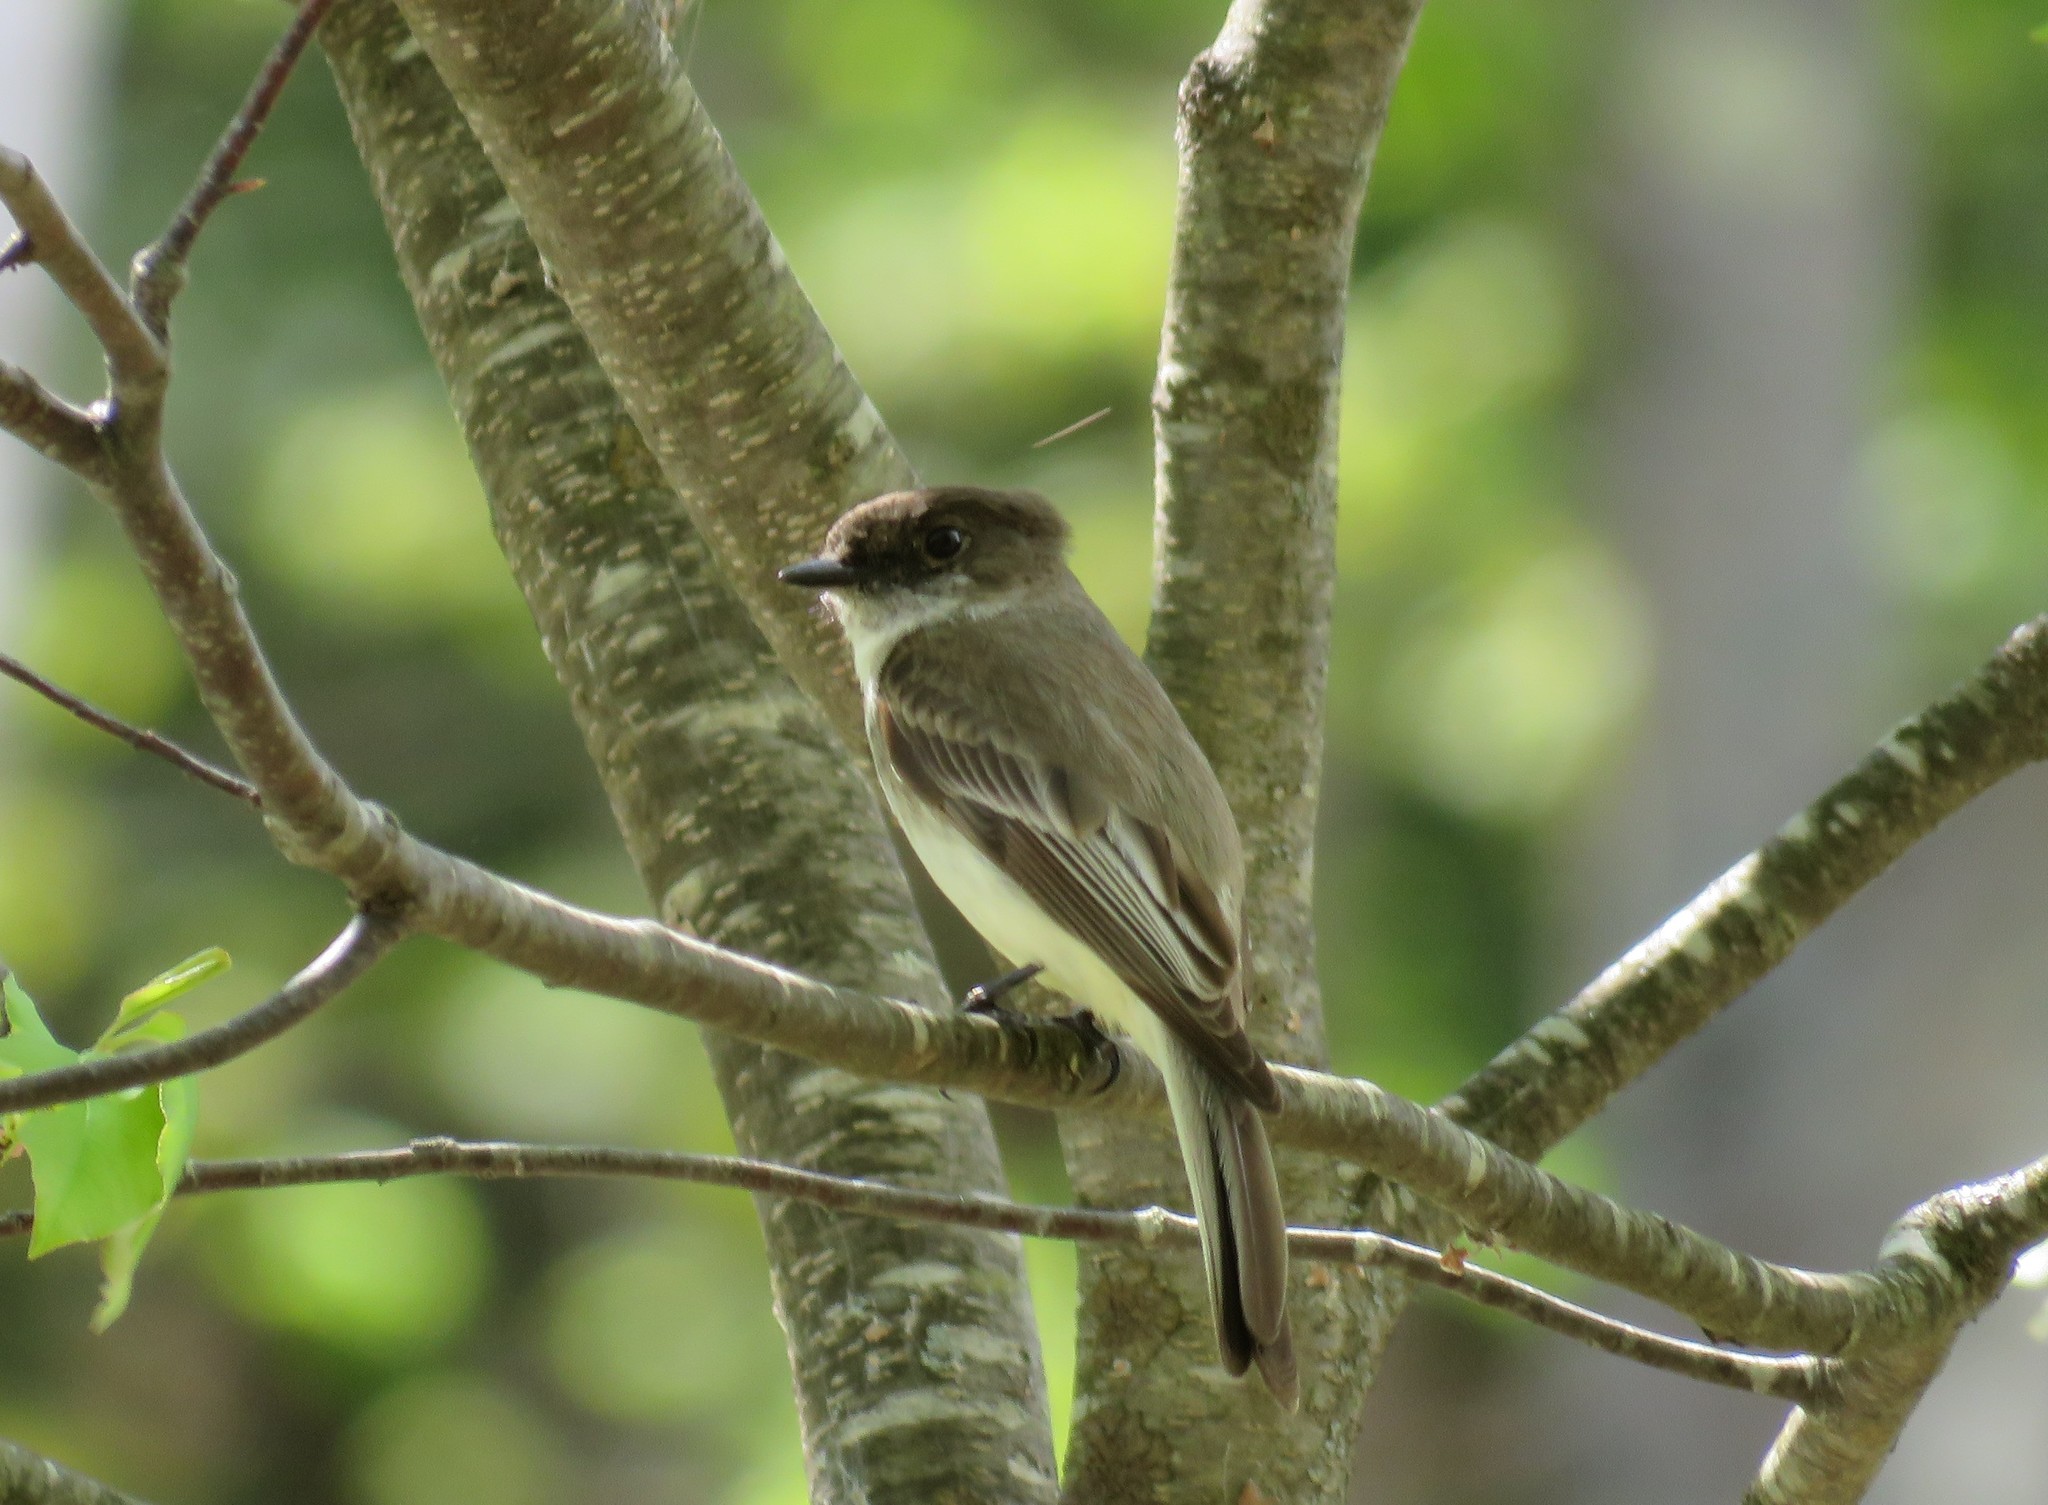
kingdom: Animalia
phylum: Chordata
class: Aves
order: Passeriformes
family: Tyrannidae
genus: Sayornis
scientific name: Sayornis phoebe
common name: Eastern phoebe
